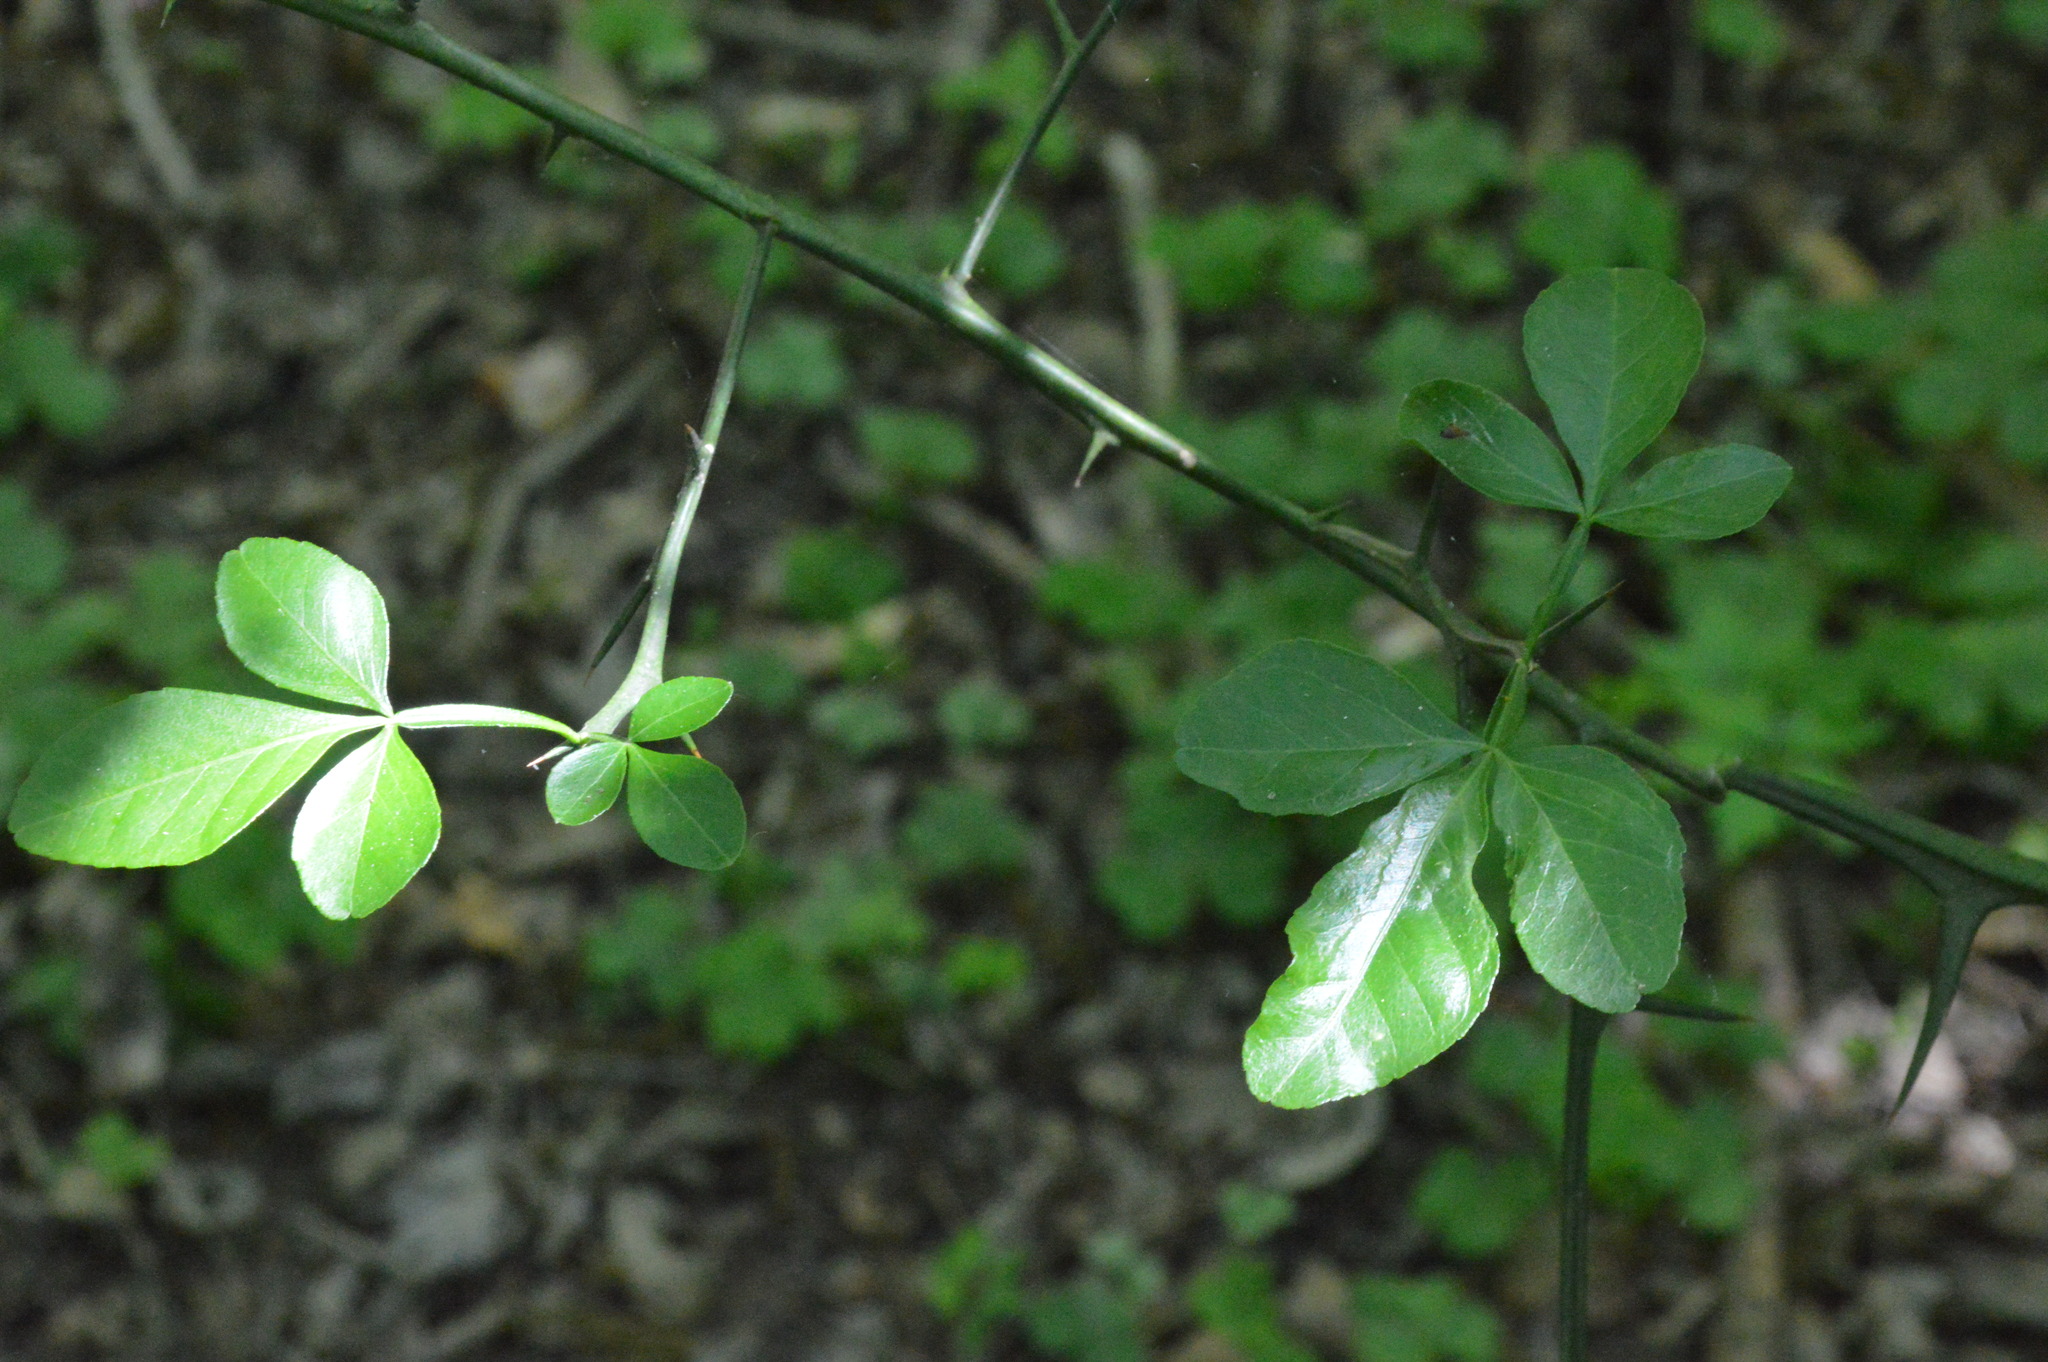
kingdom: Plantae
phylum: Tracheophyta
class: Magnoliopsida
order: Sapindales
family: Rutaceae
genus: Citrus
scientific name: Citrus trifoliata
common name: Japanese bitter-orange
